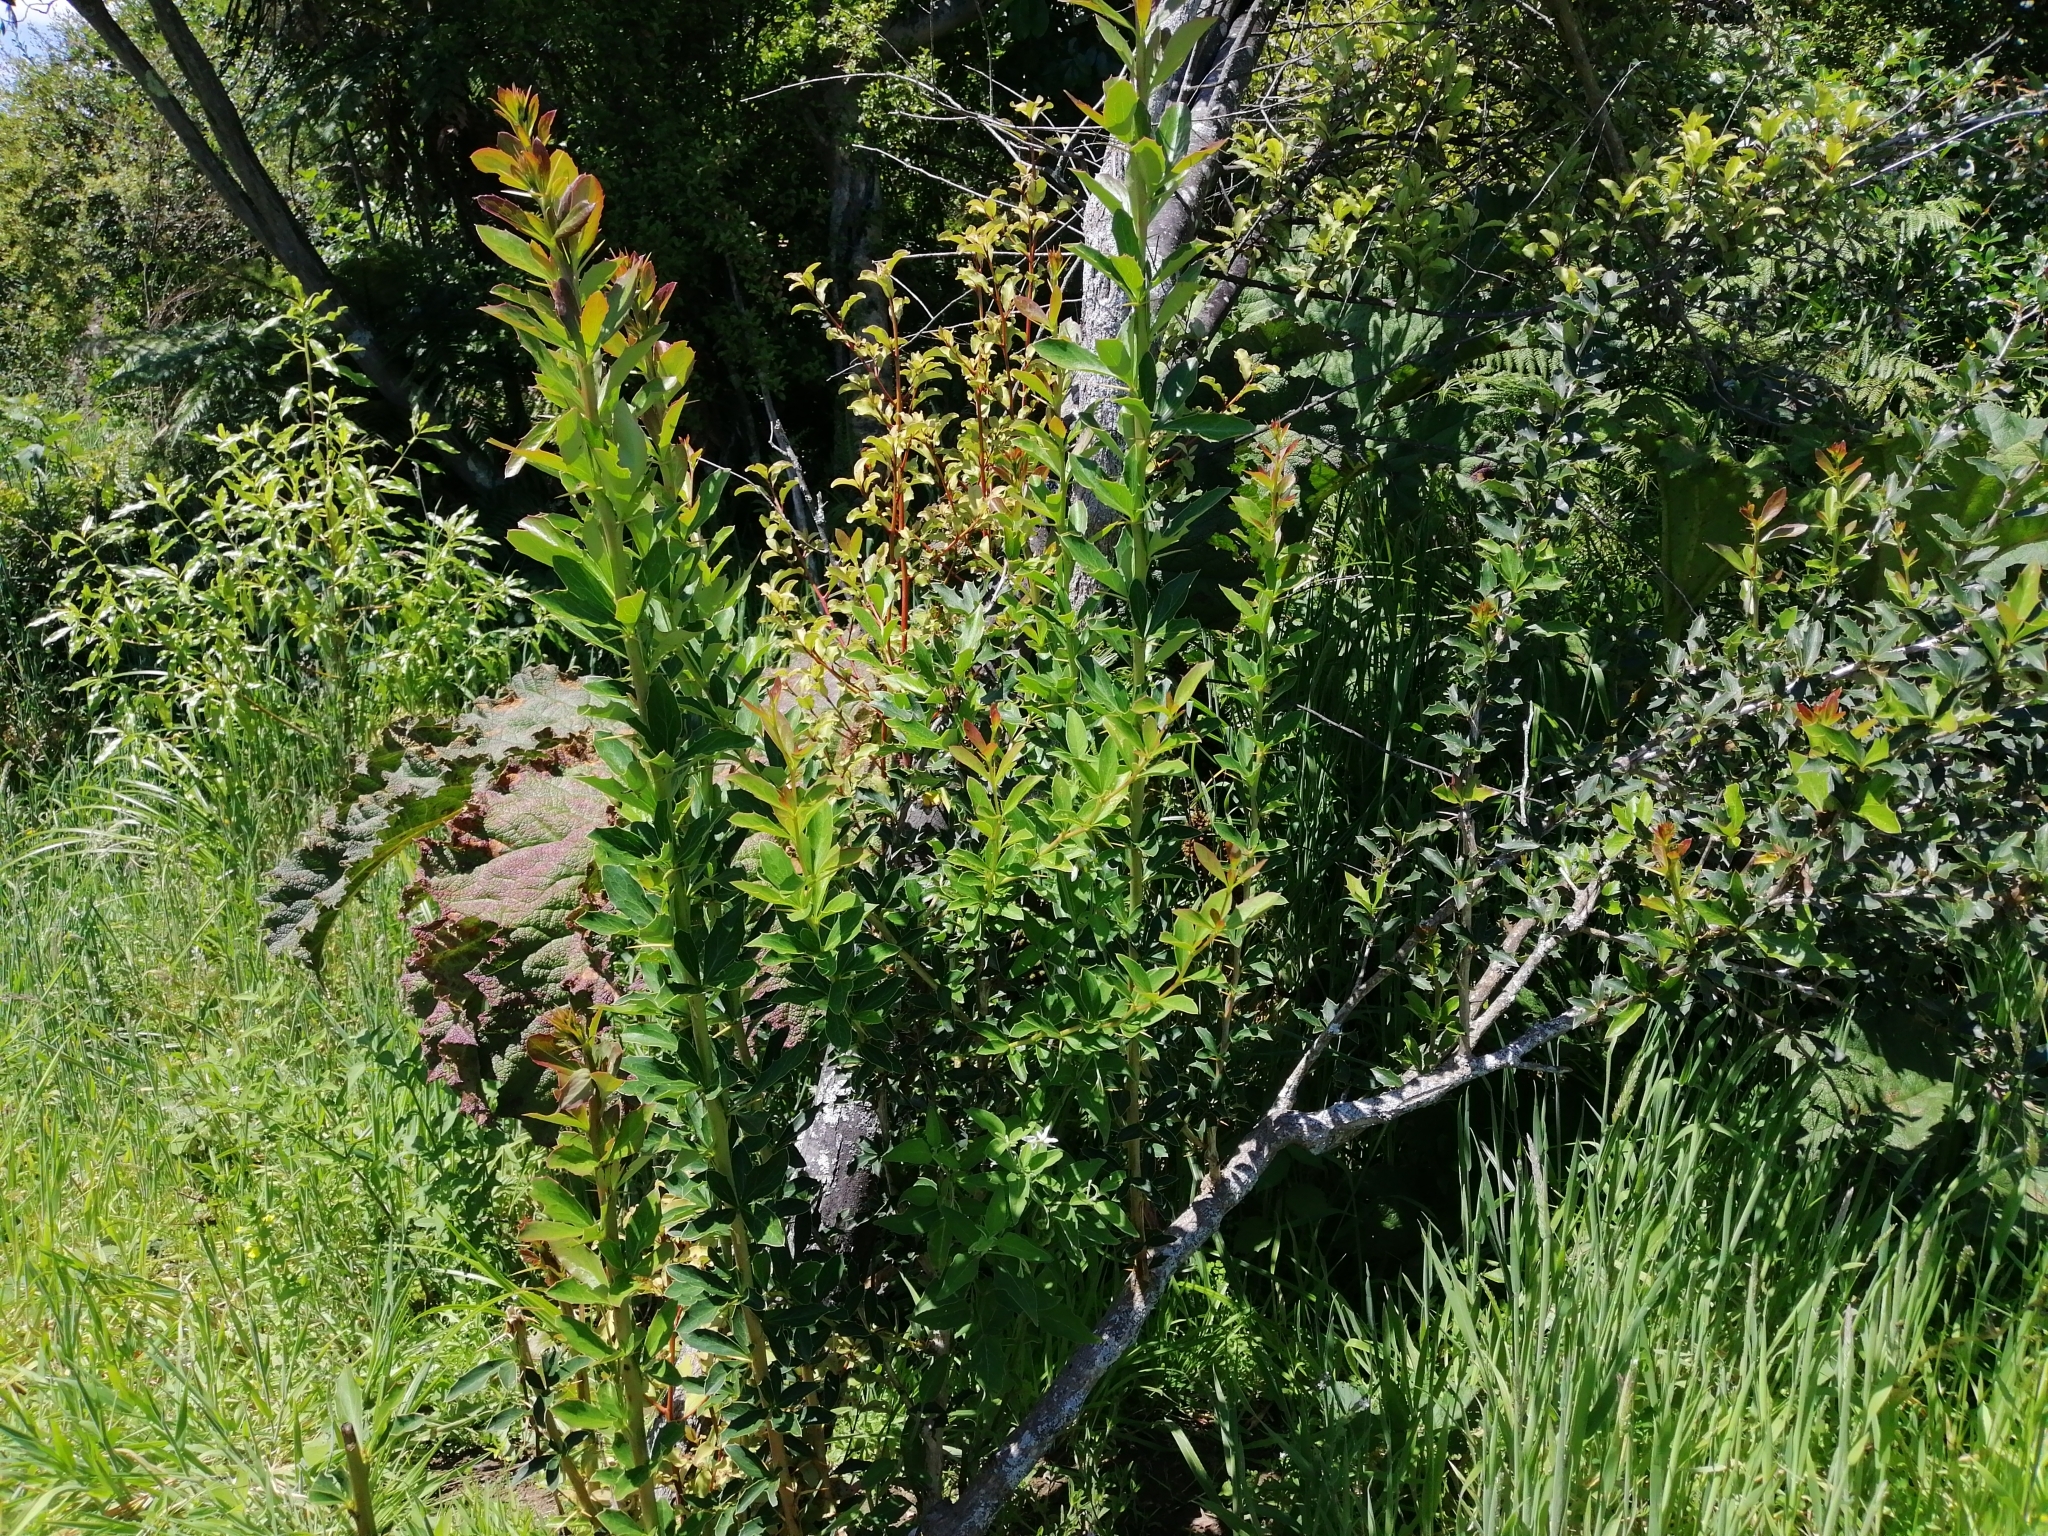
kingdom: Plantae
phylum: Tracheophyta
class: Magnoliopsida
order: Ranunculales
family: Berberidaceae
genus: Berberis
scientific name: Berberis glaucocarpa
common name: Great barberry
